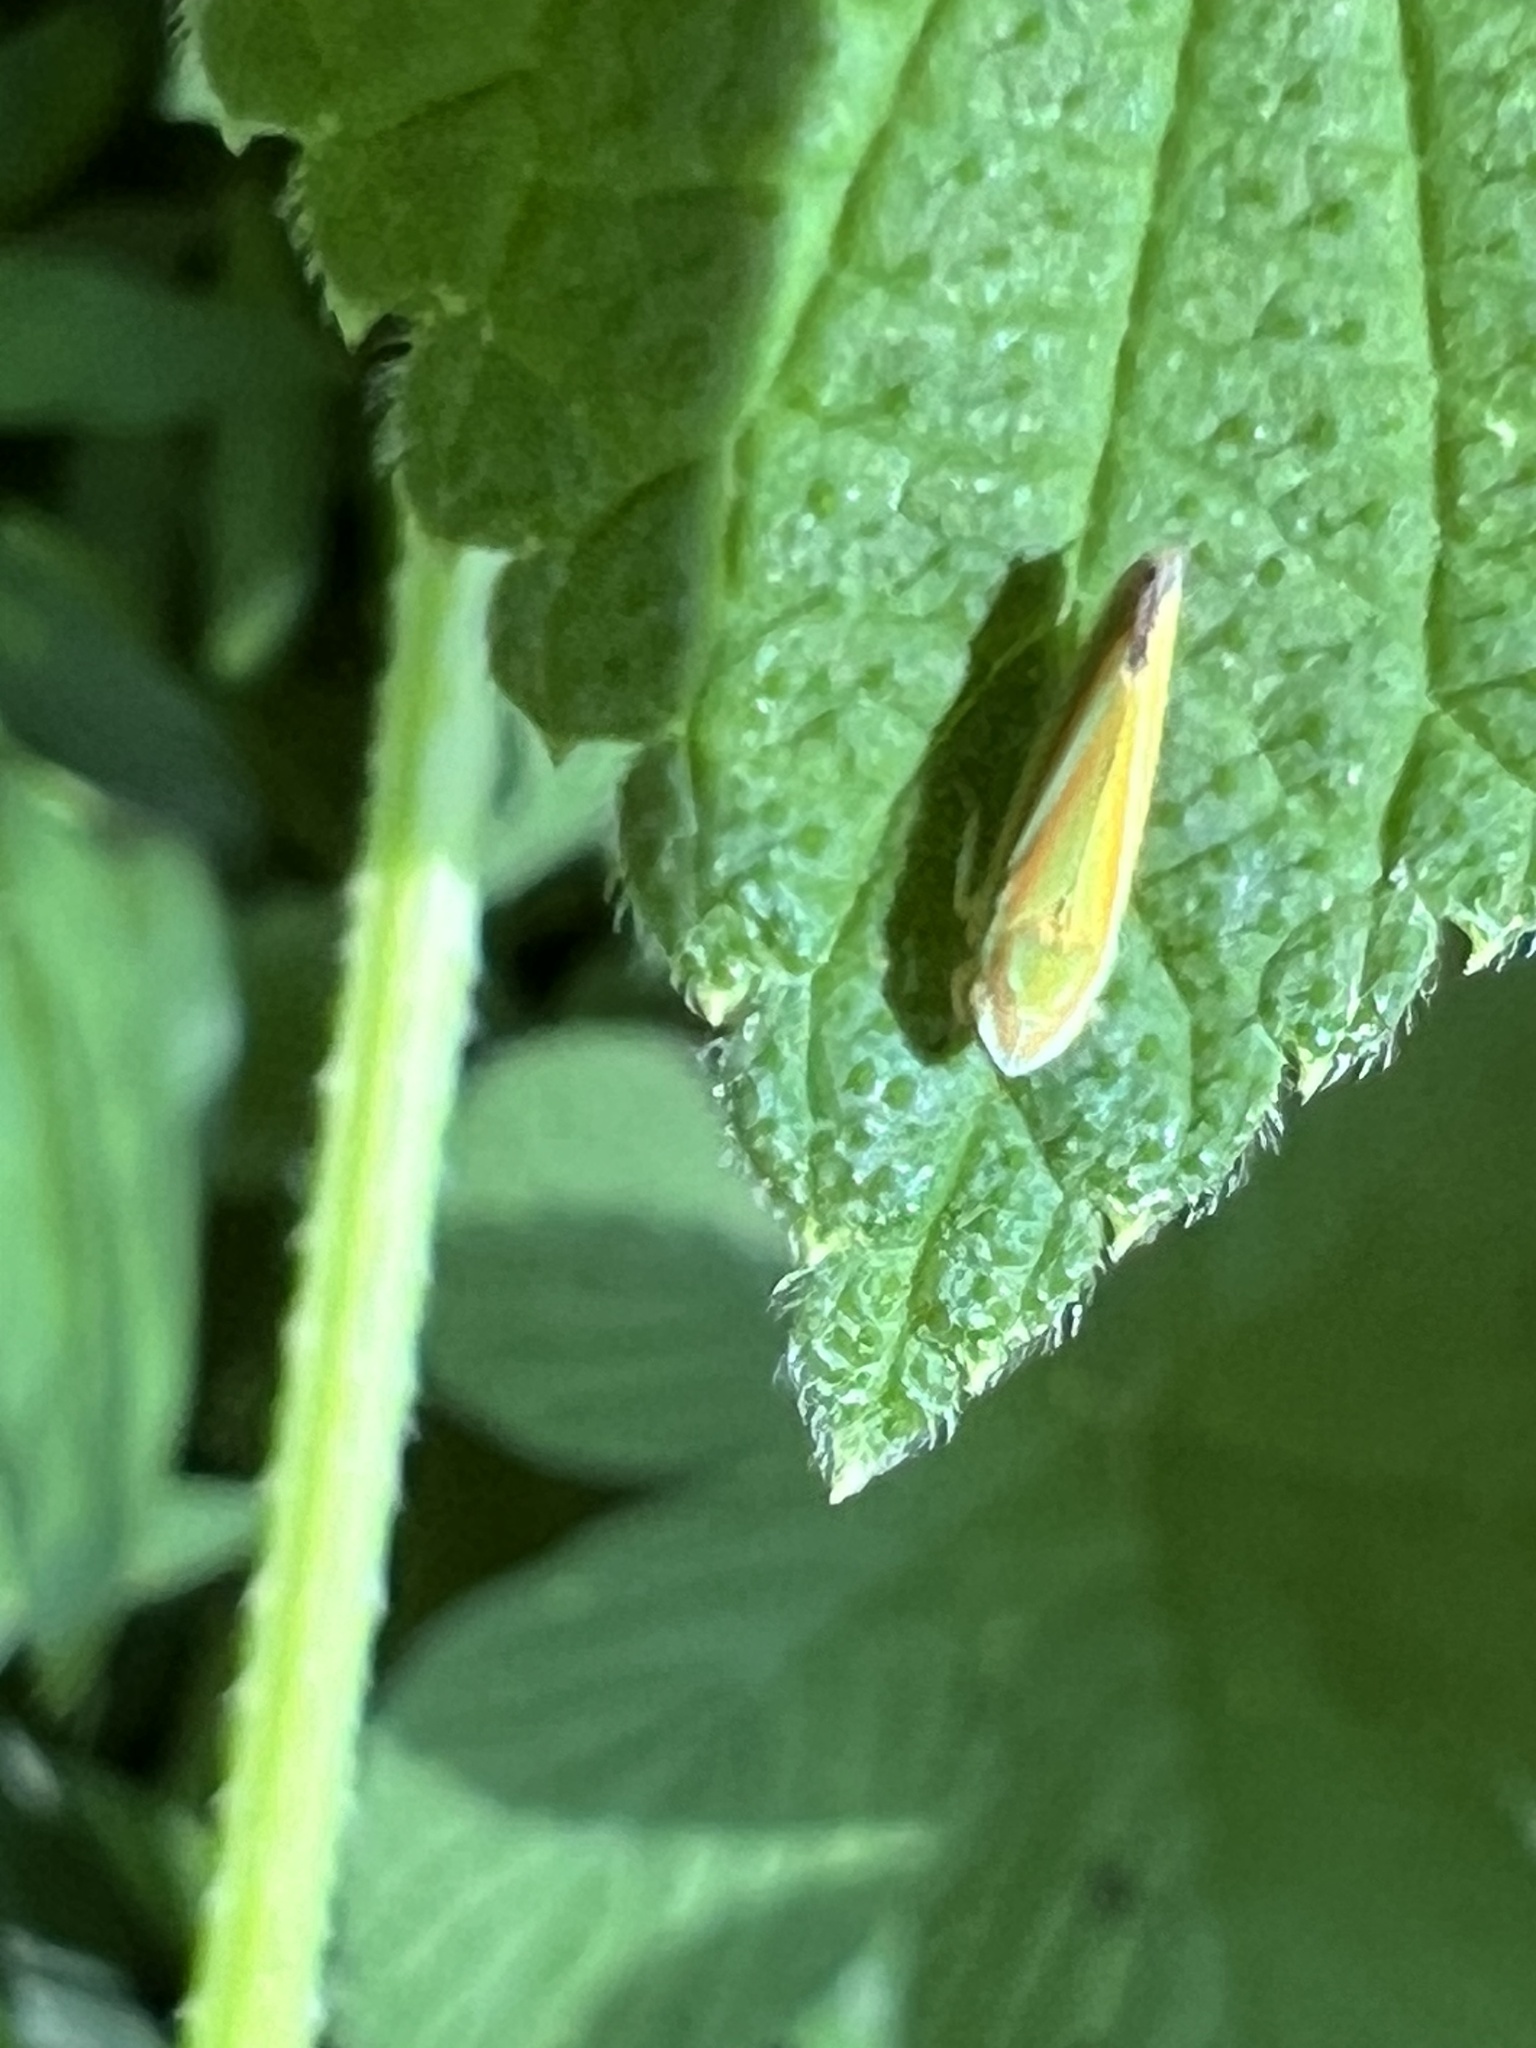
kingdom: Animalia
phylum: Arthropoda
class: Insecta
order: Hemiptera
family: Cicadellidae
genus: Graphocephala
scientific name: Graphocephala versuta
